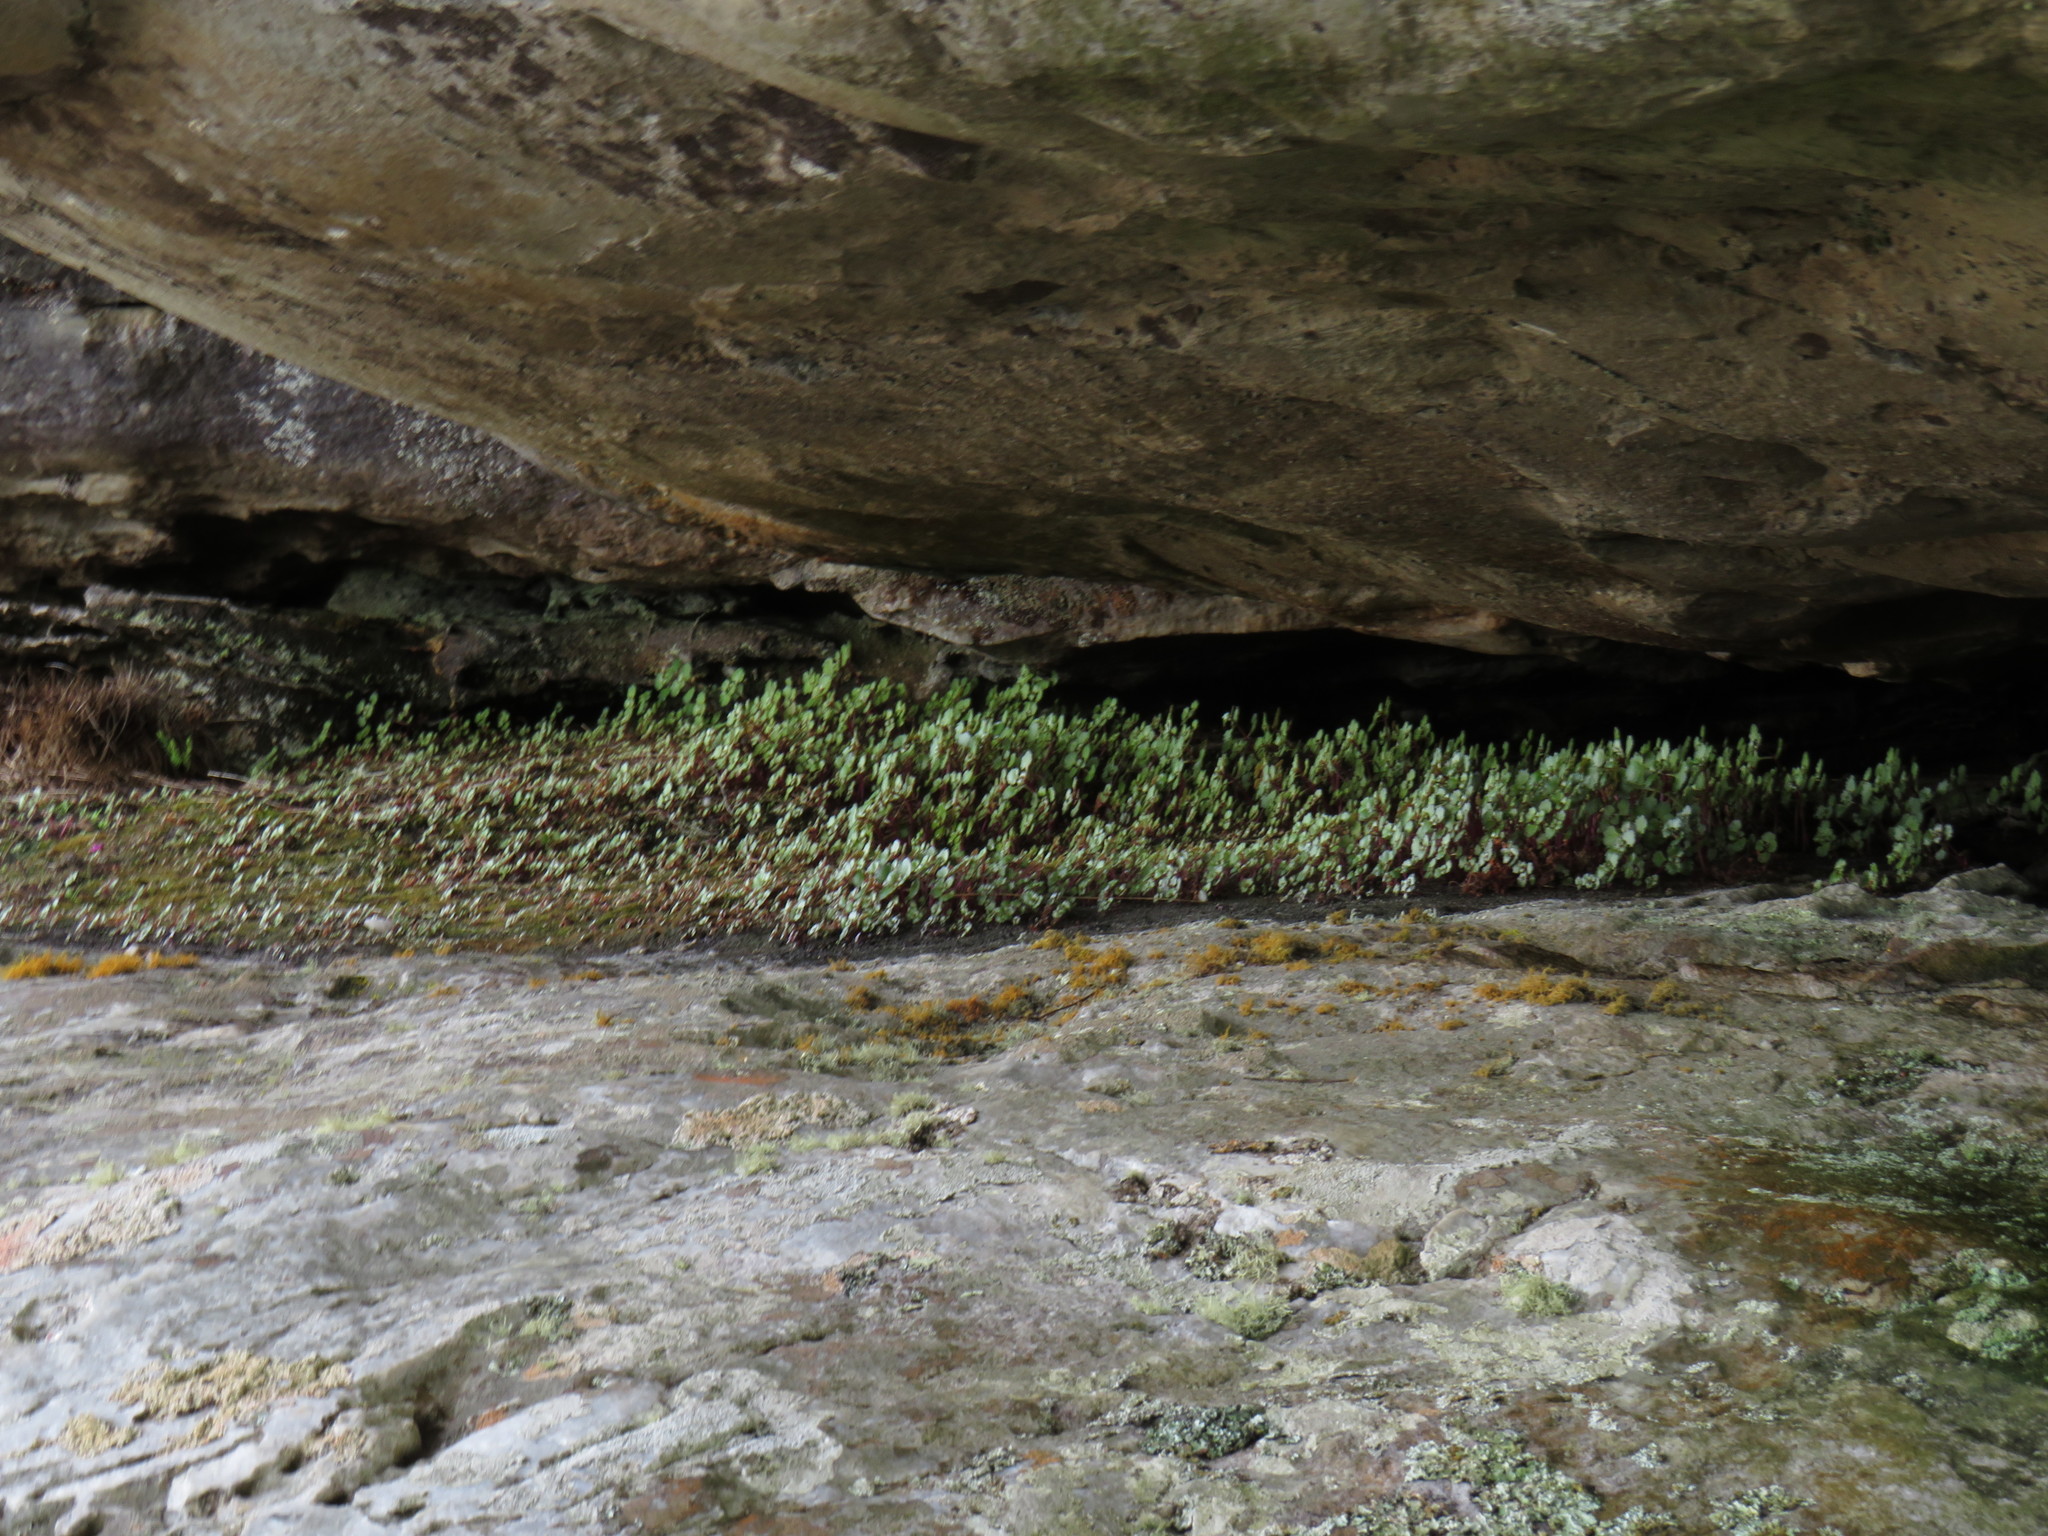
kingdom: Plantae
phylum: Tracheophyta
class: Magnoliopsida
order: Saxifragales
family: Crassulaceae
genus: Crassula
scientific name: Crassula capensis
